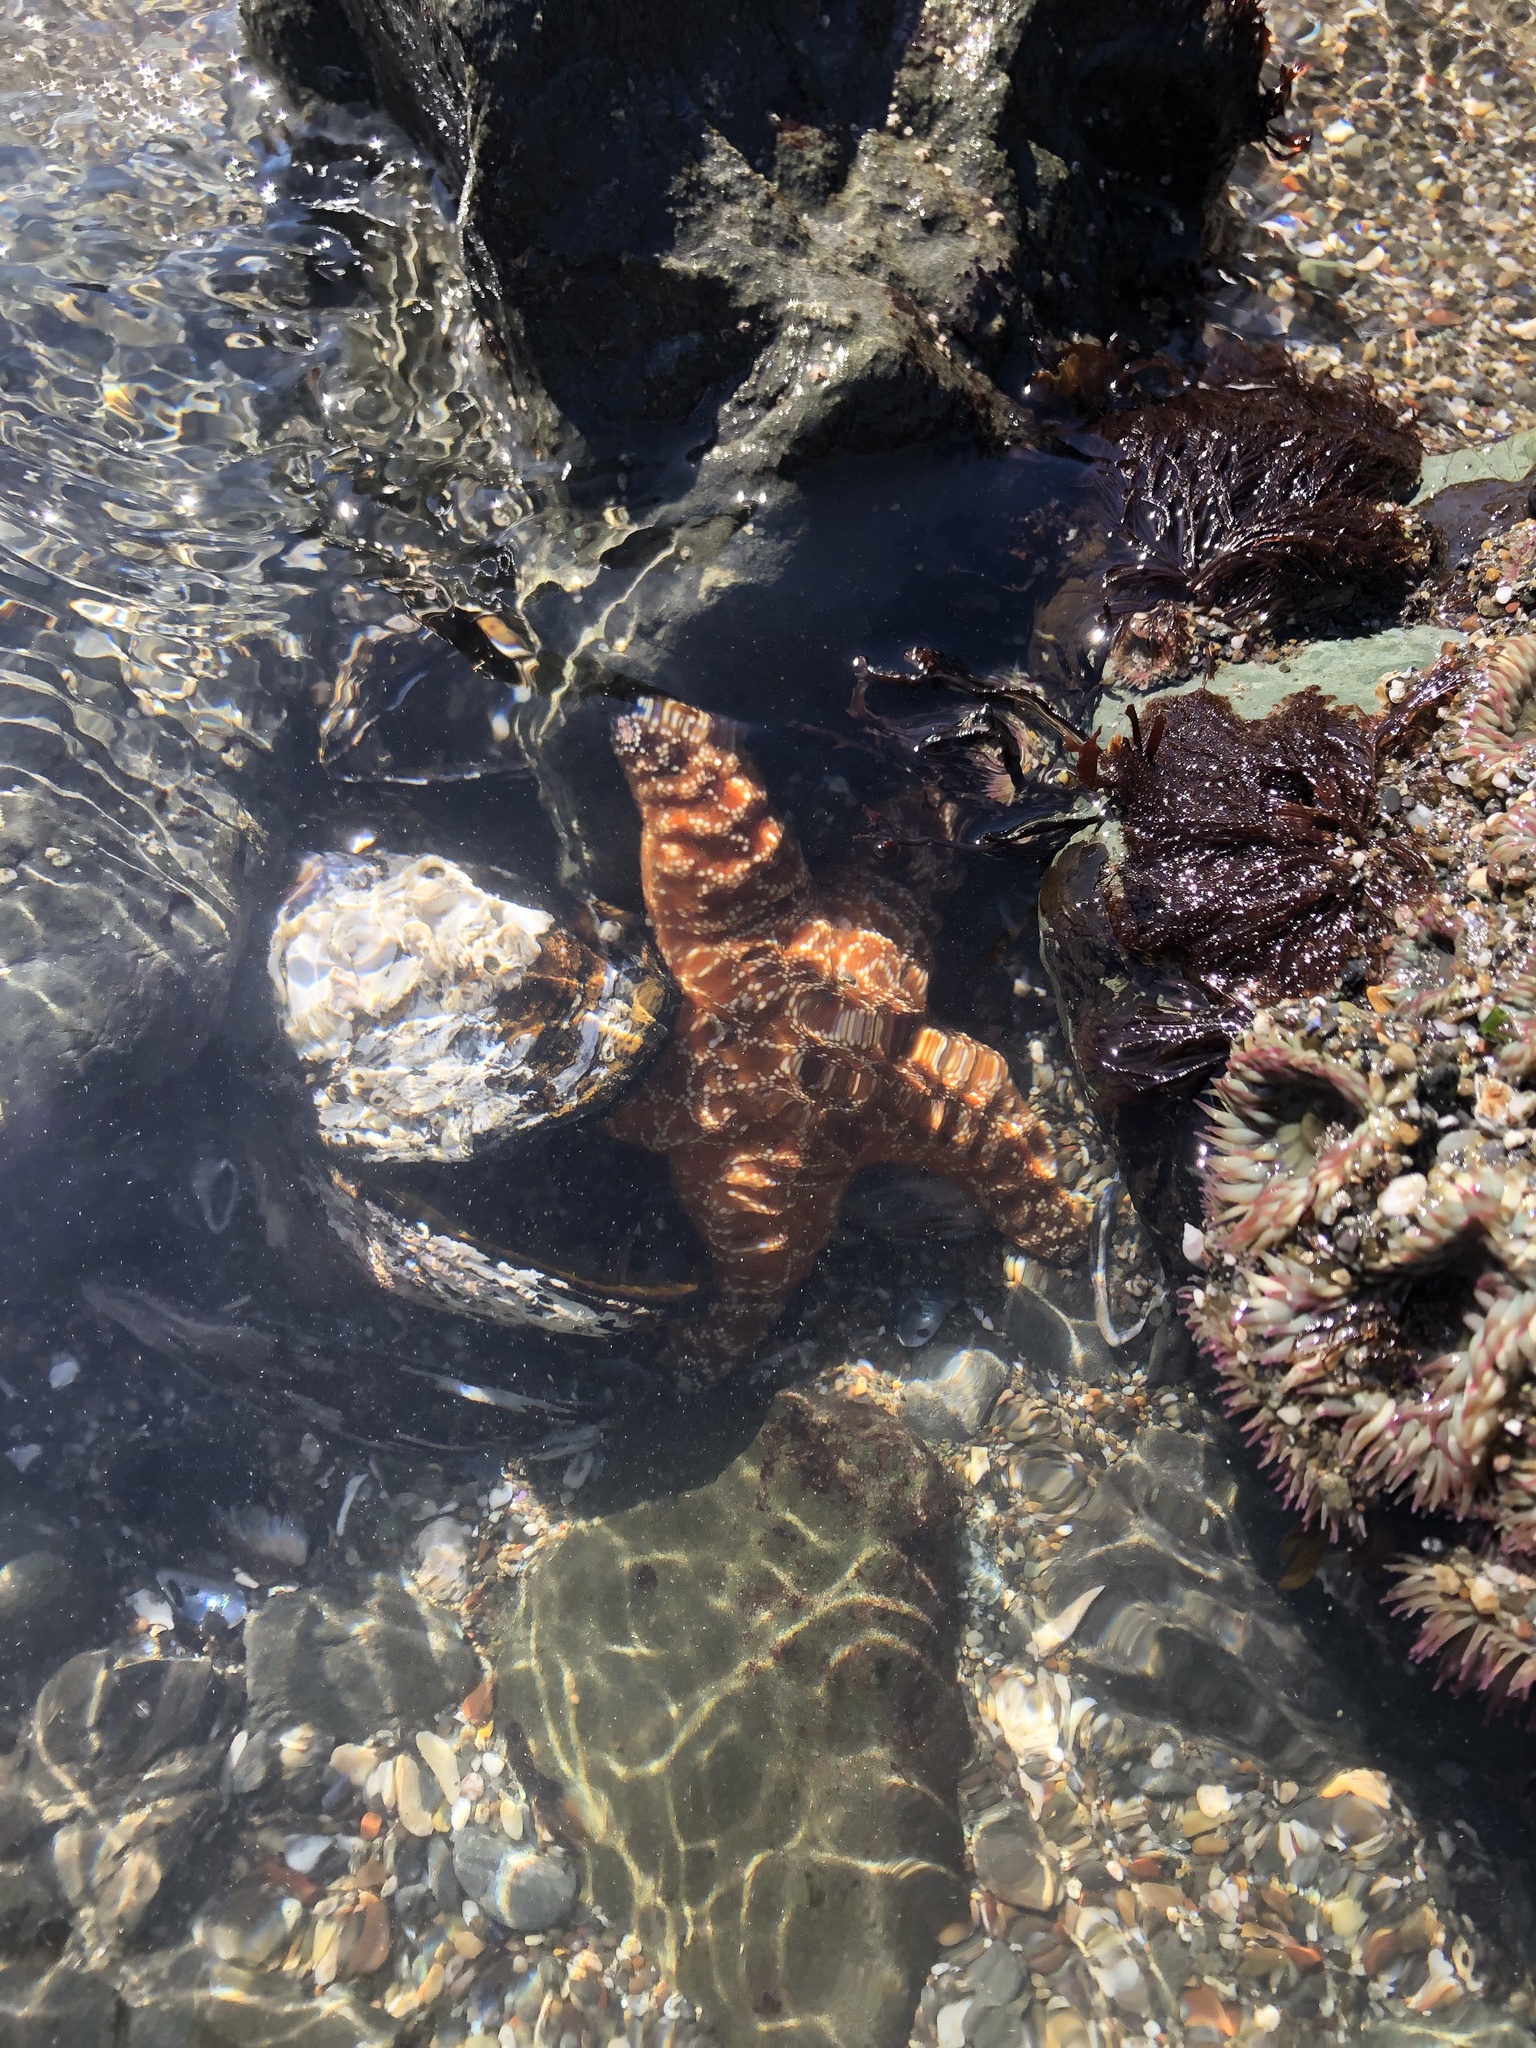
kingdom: Animalia
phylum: Echinodermata
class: Asteroidea
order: Forcipulatida
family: Asteriidae
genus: Pisaster
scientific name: Pisaster ochraceus
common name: Ochre stars
